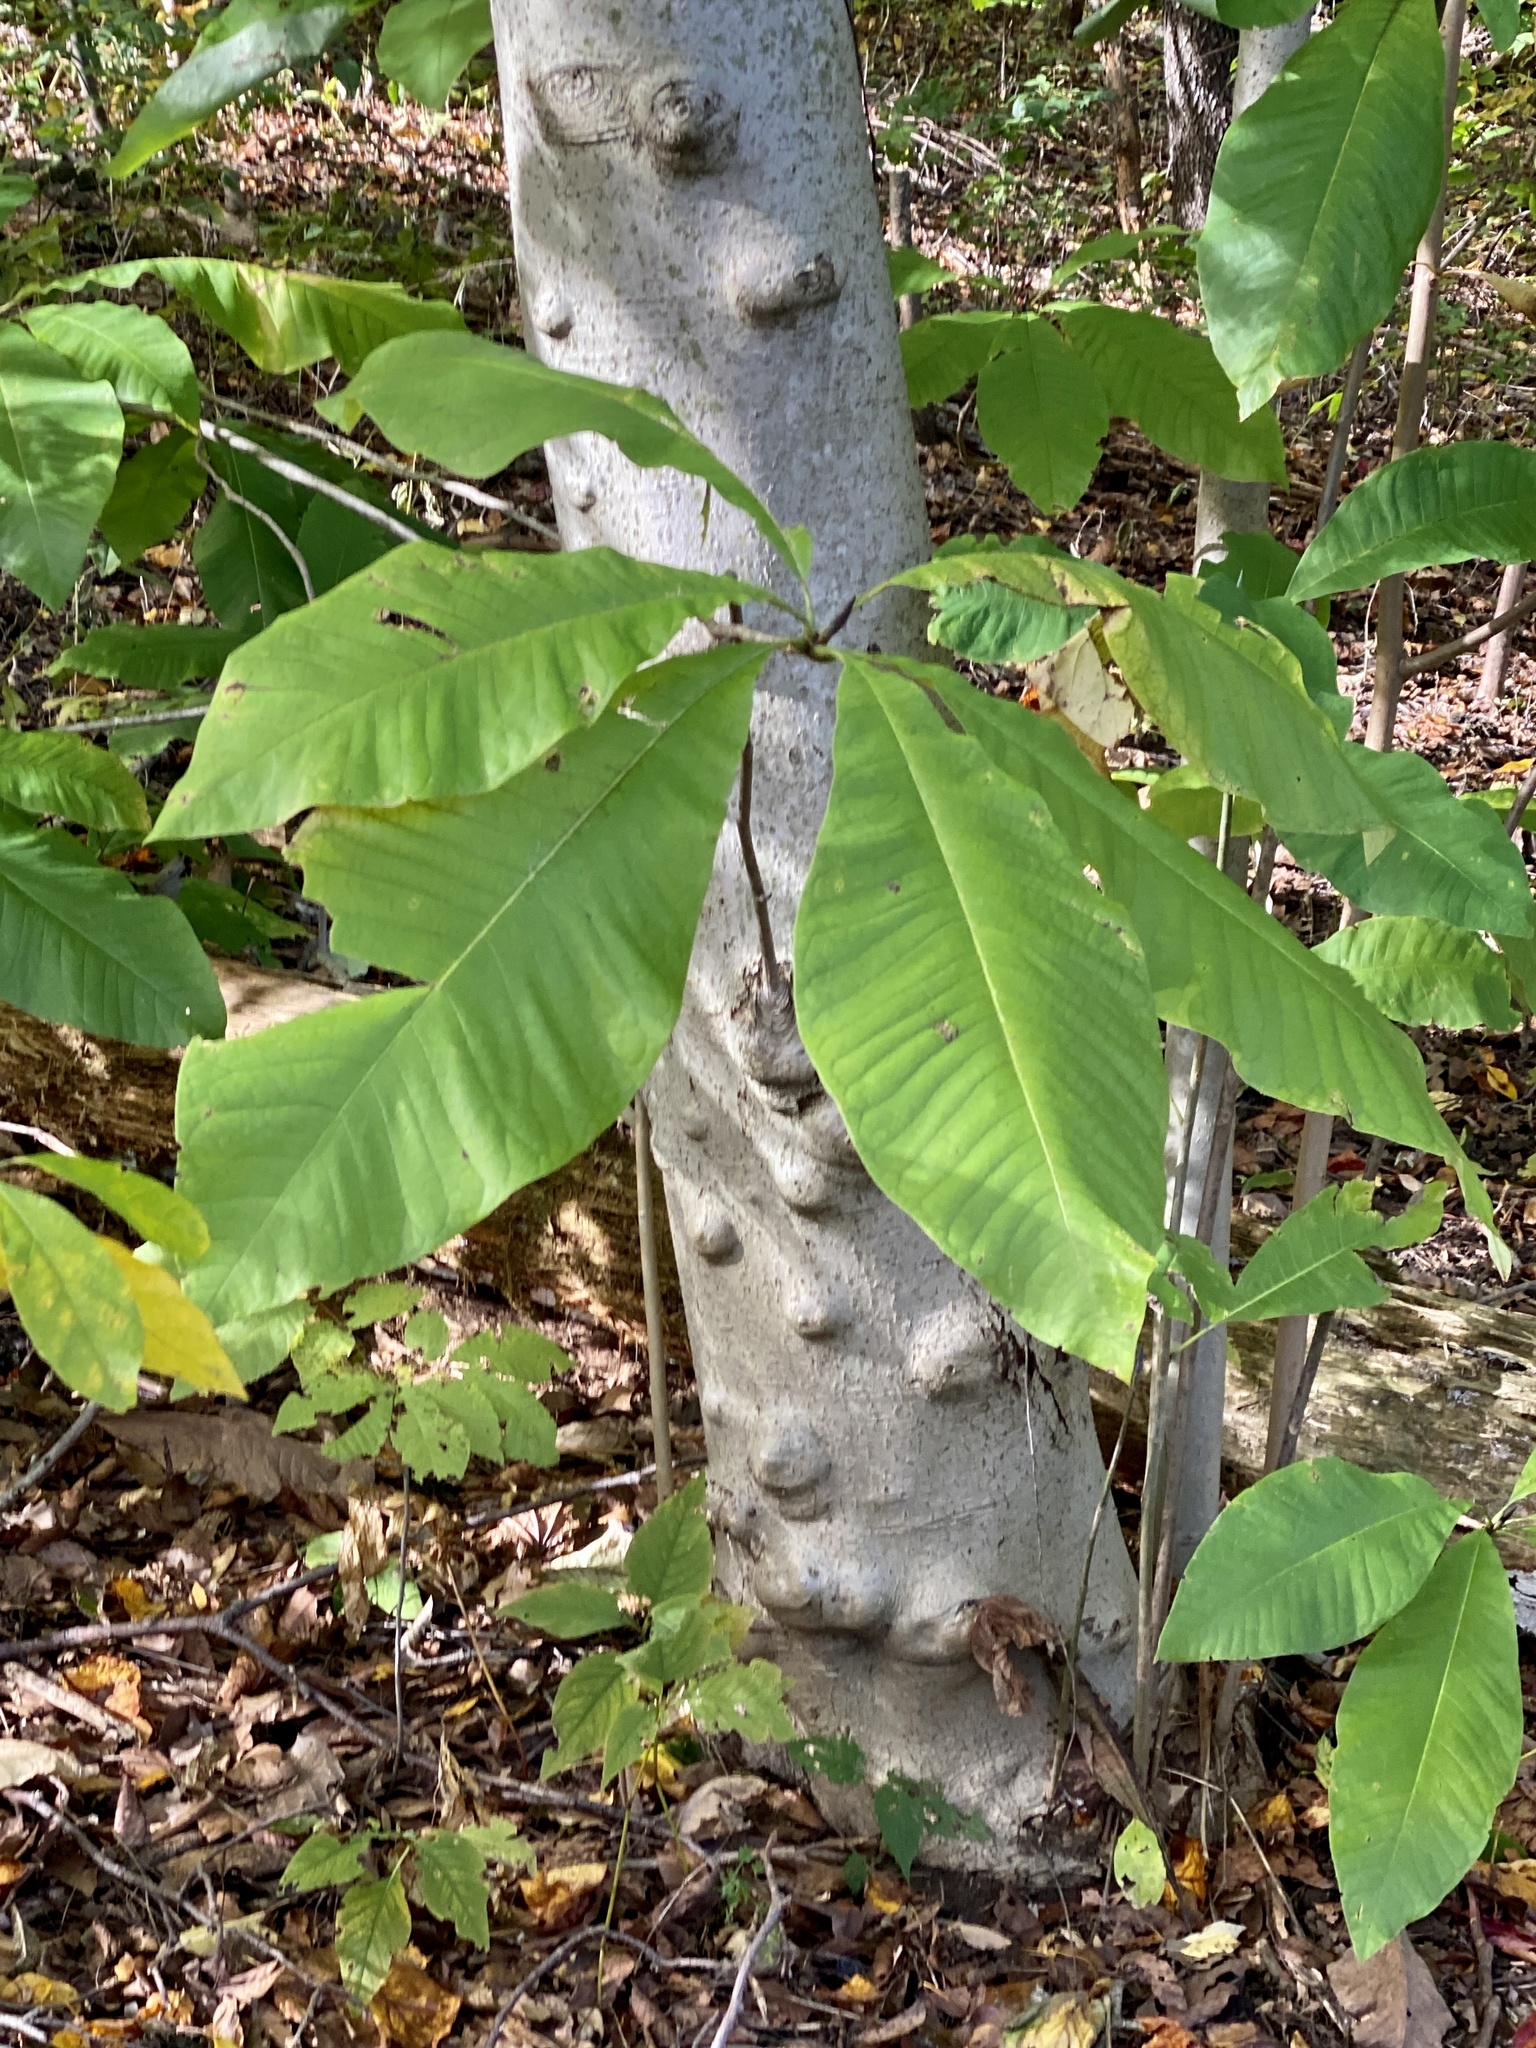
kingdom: Plantae
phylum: Tracheophyta
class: Magnoliopsida
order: Magnoliales
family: Magnoliaceae
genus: Magnolia
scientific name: Magnolia tripetala
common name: Umbrella magnolia
